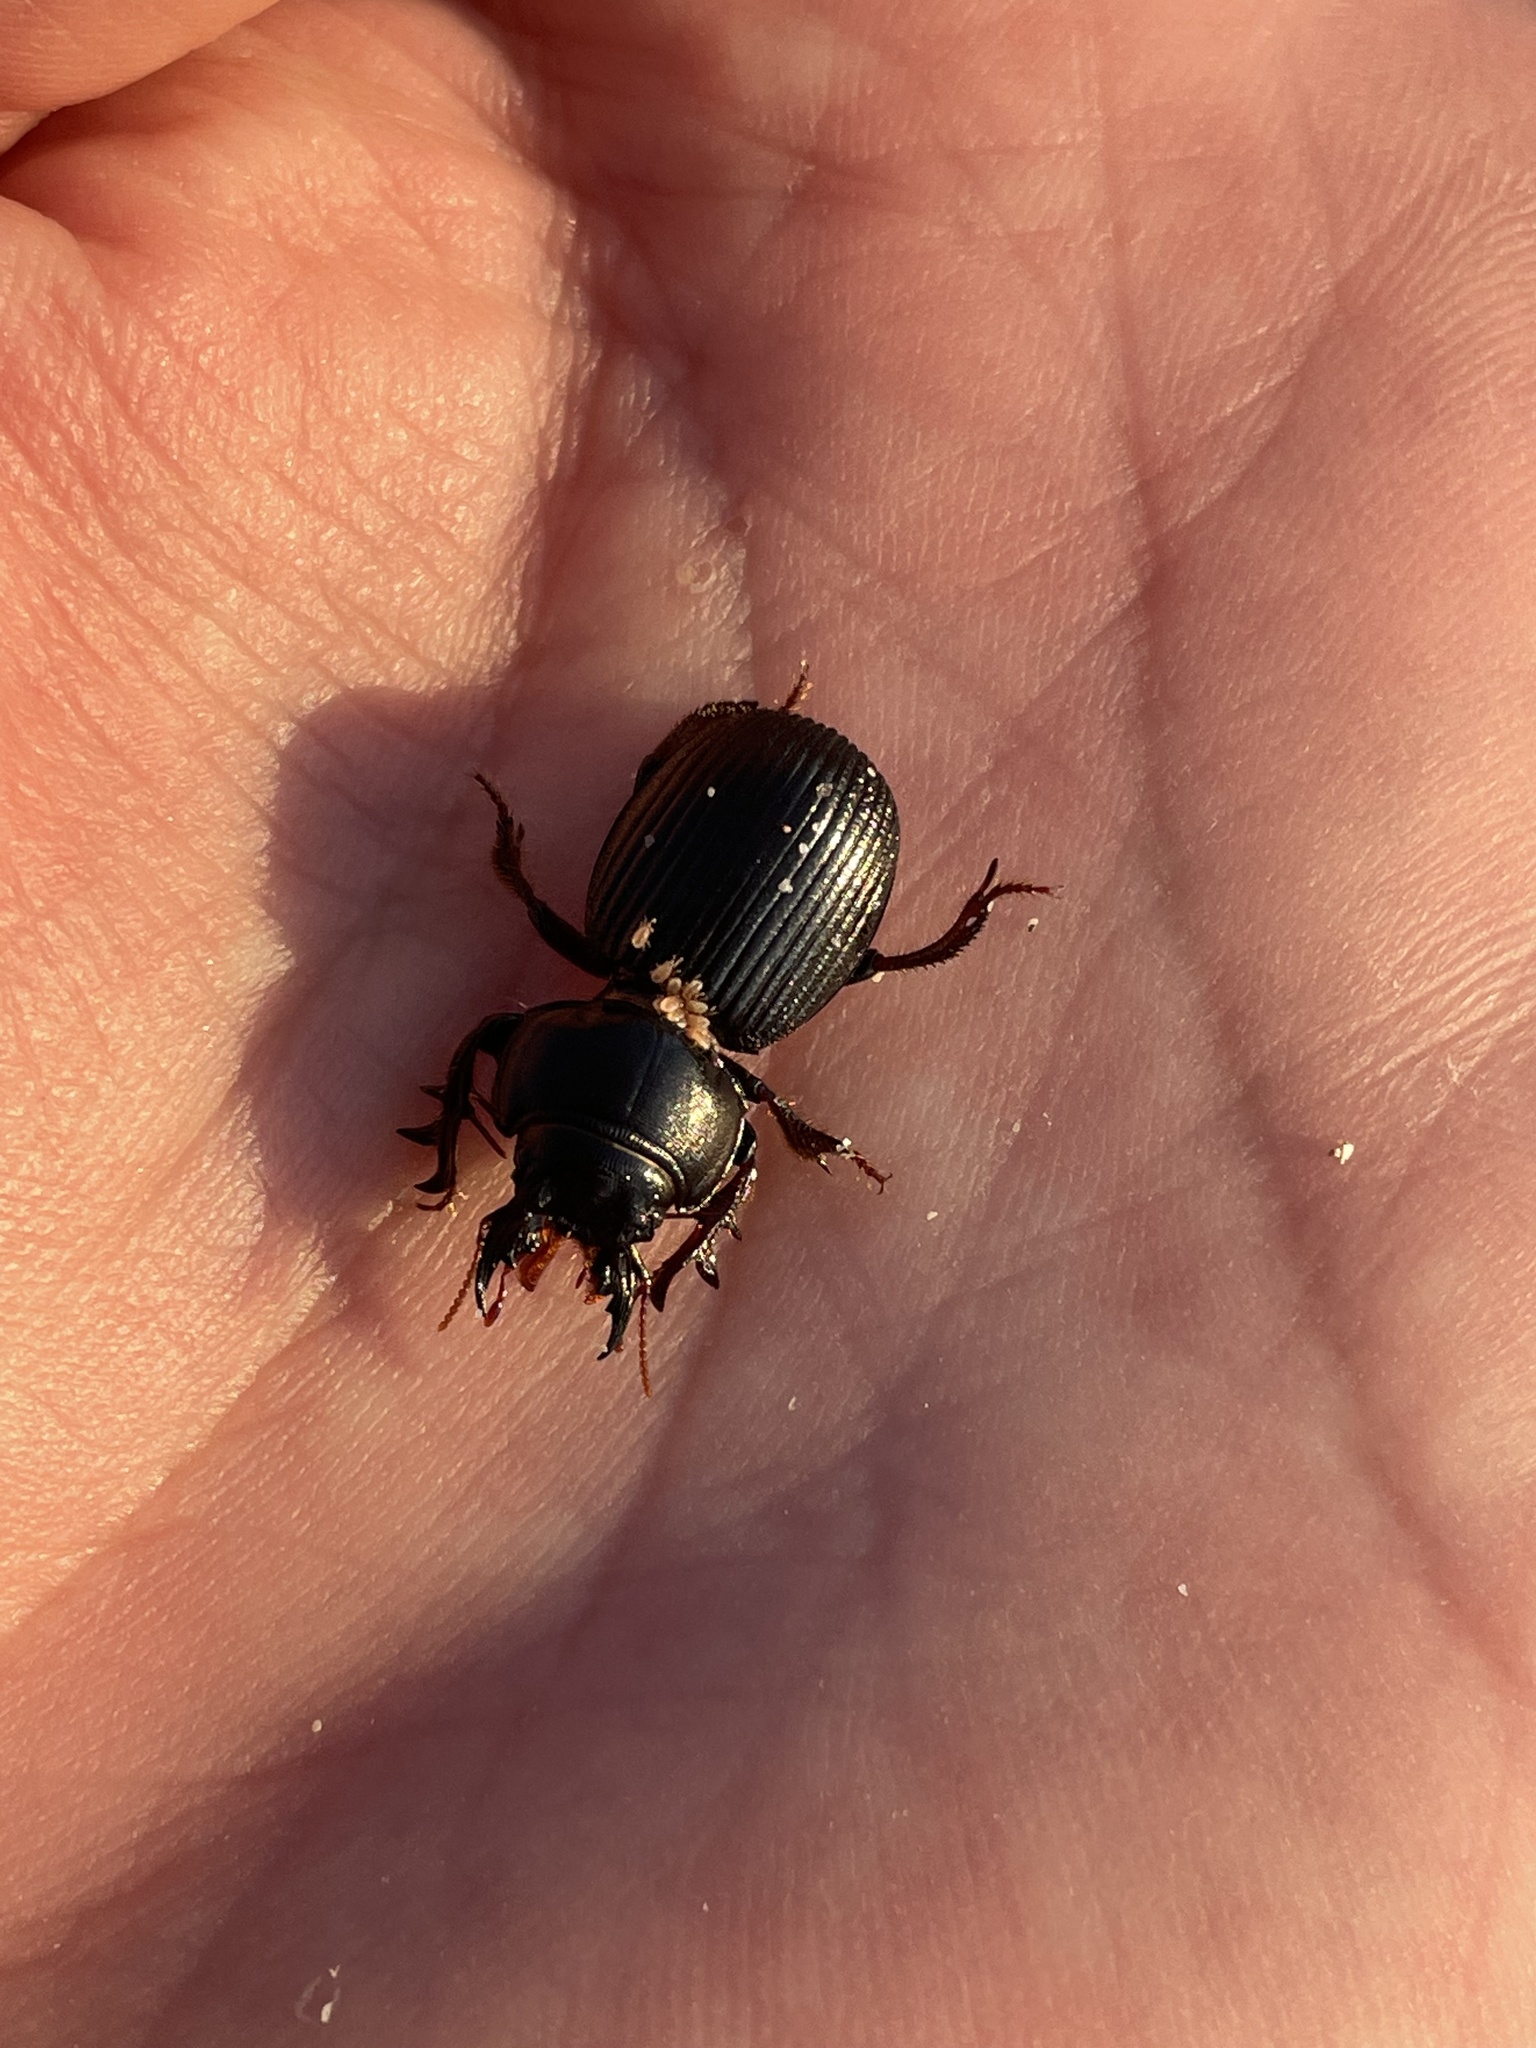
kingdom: Animalia
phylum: Arthropoda
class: Insecta
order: Coleoptera
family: Carabidae
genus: Acanthoscelis
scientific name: Acanthoscelis ruficornis
